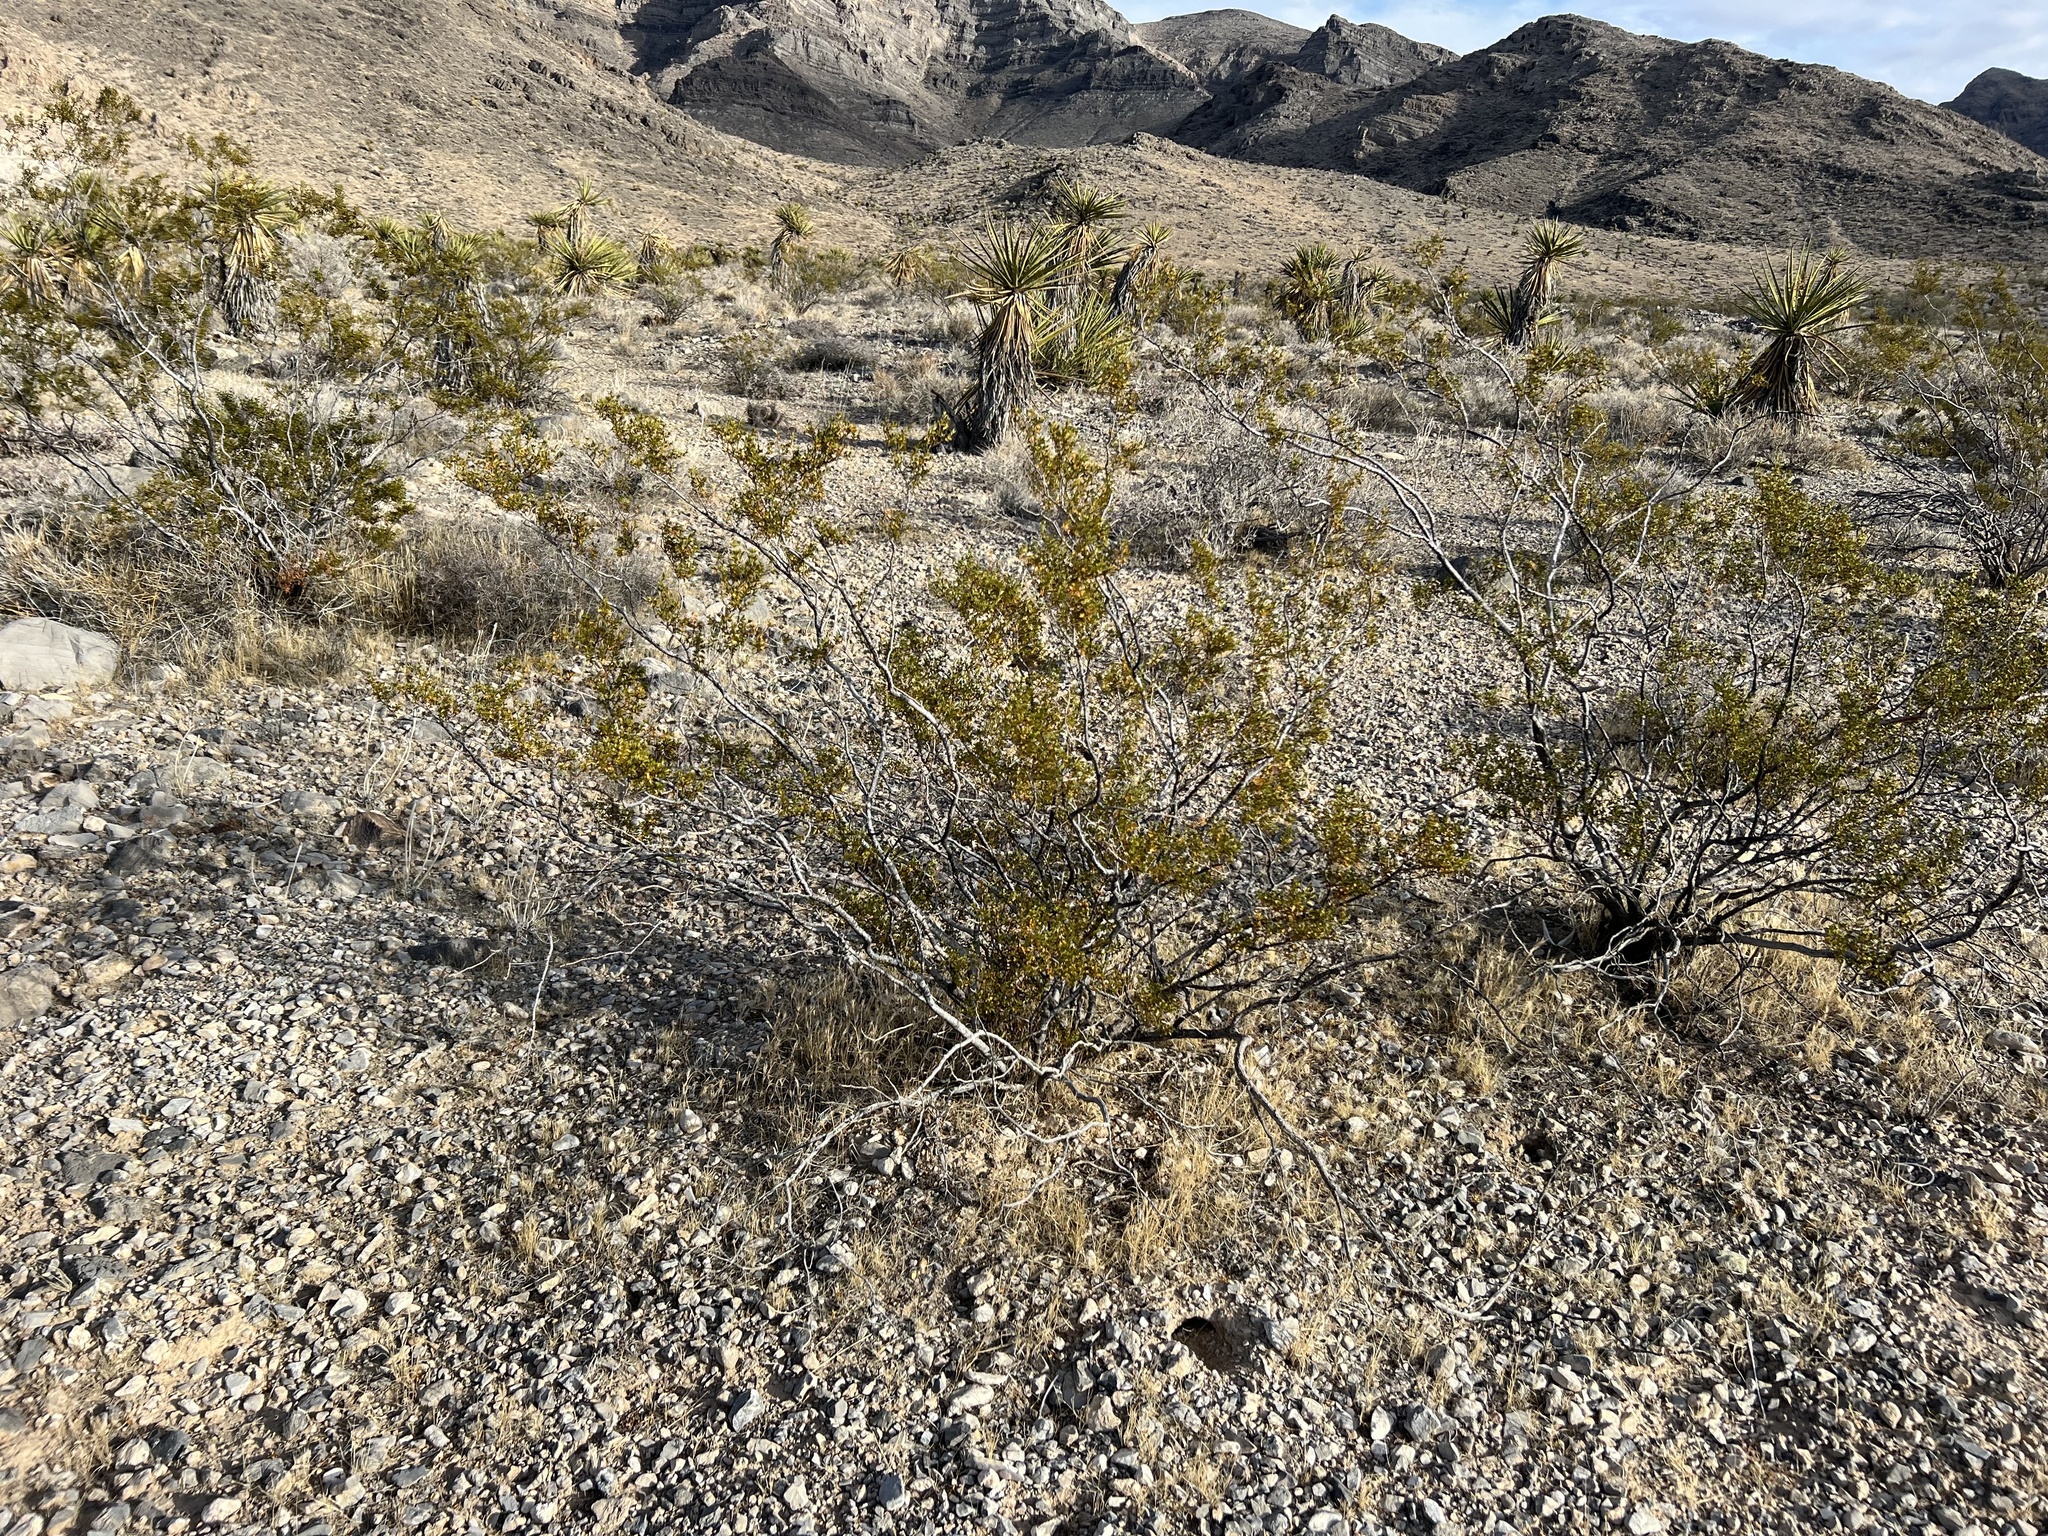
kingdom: Plantae
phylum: Tracheophyta
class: Magnoliopsida
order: Zygophyllales
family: Zygophyllaceae
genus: Larrea
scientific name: Larrea tridentata
